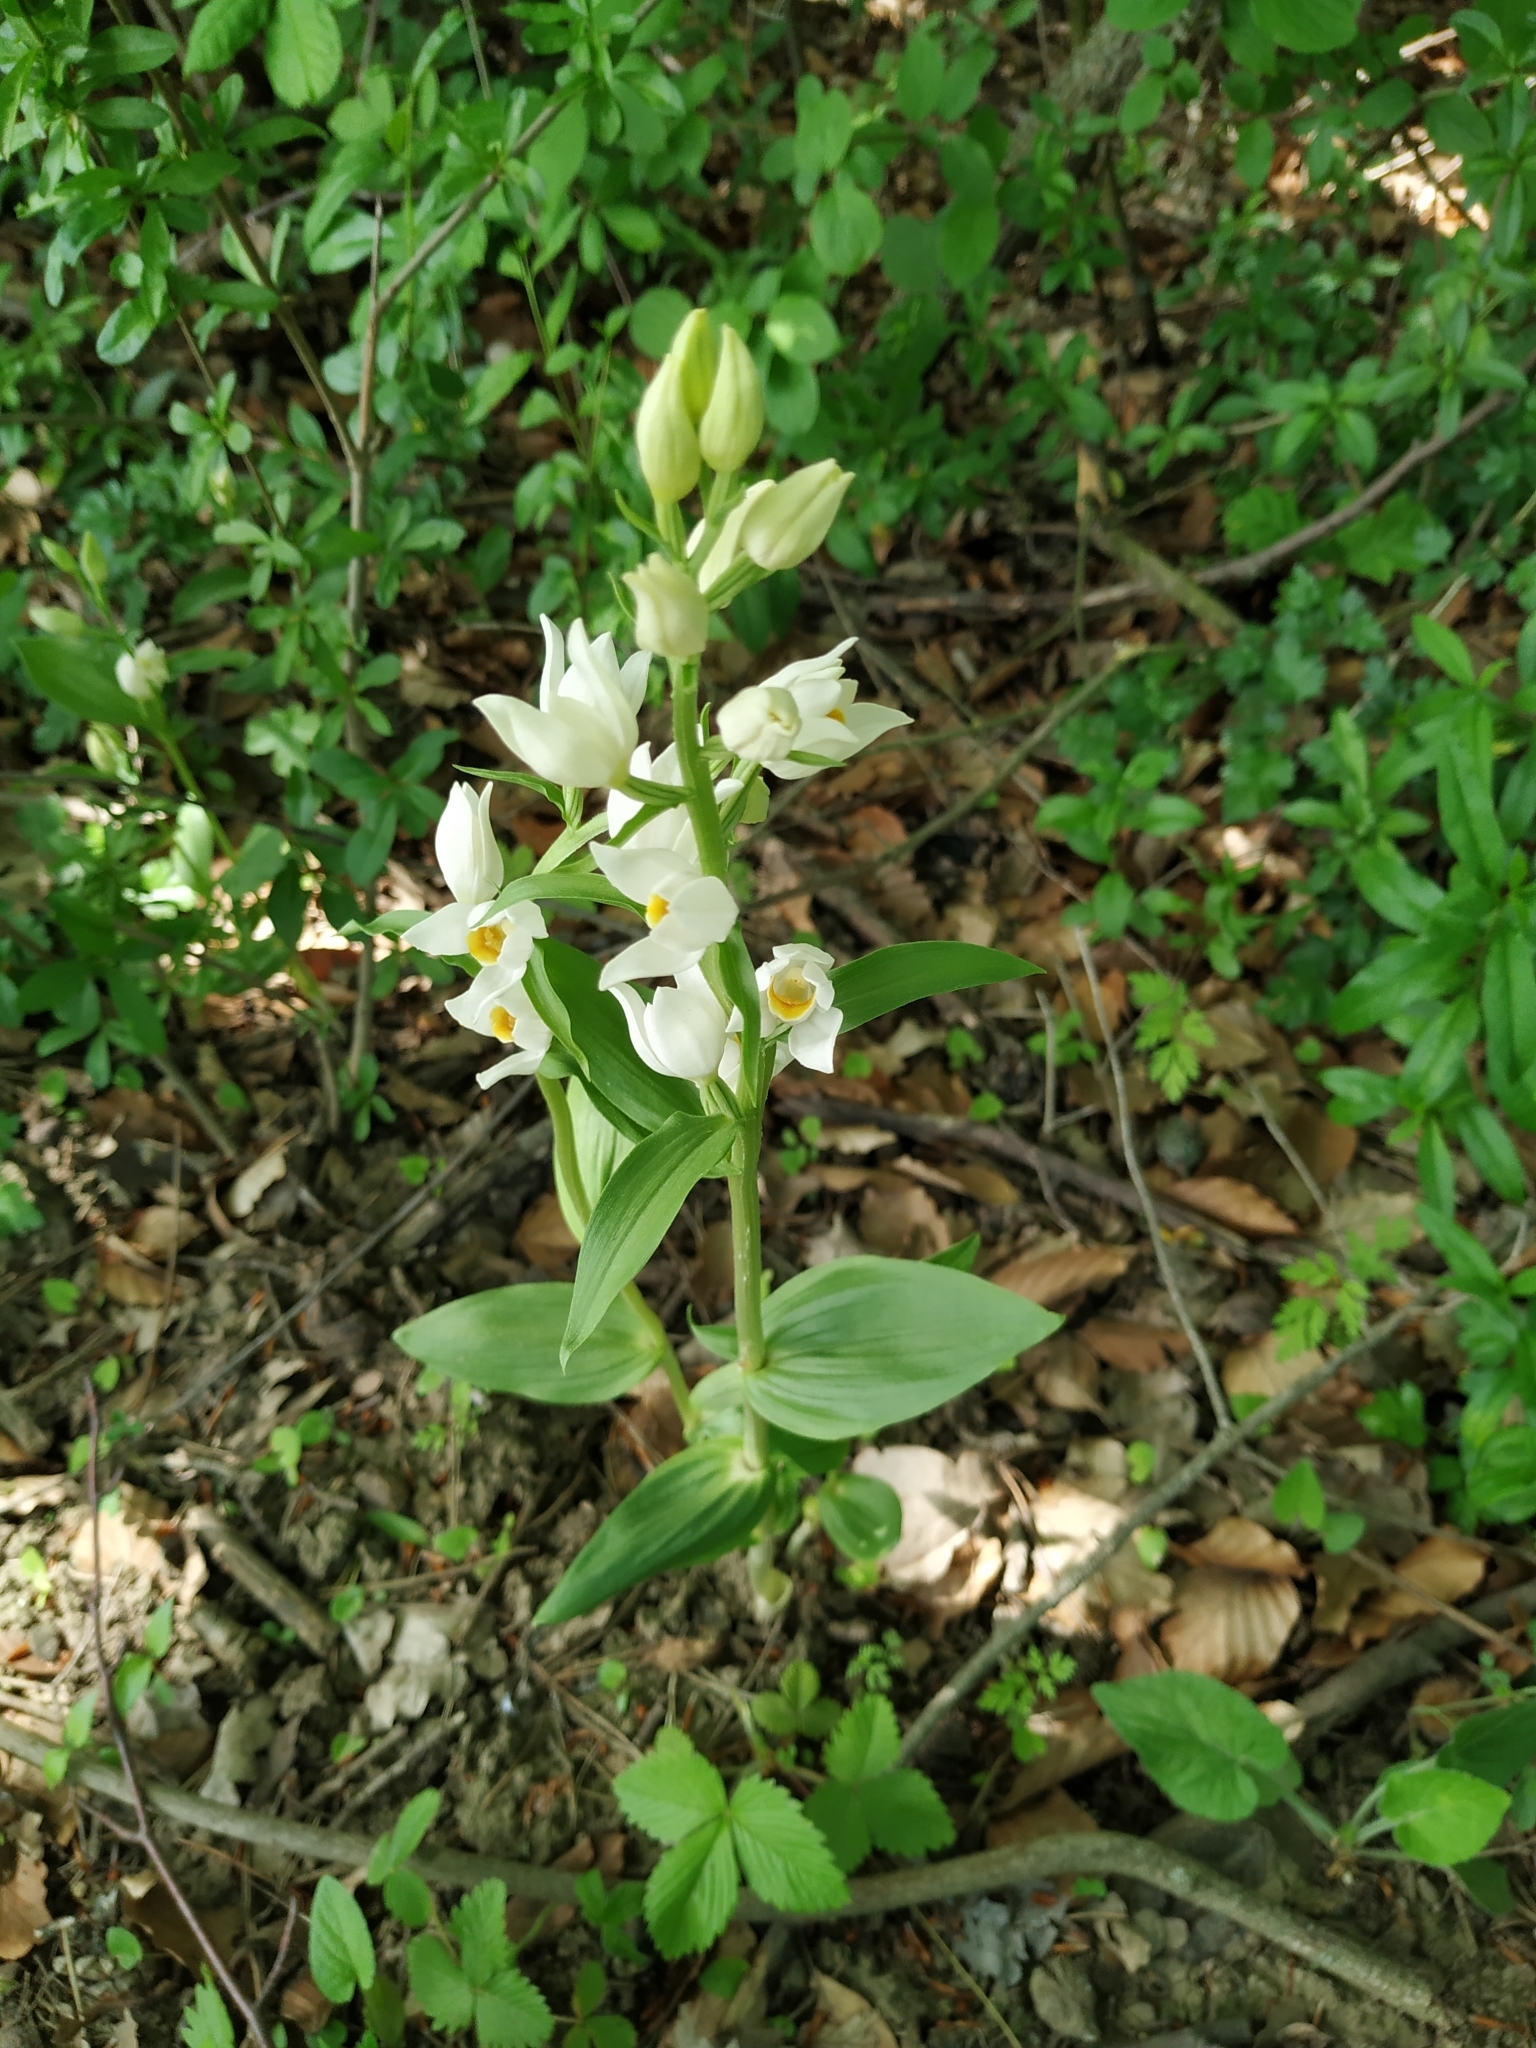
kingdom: Plantae
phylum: Tracheophyta
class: Liliopsida
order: Asparagales
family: Orchidaceae
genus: Cephalanthera
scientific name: Cephalanthera damasonium
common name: White helleborine
